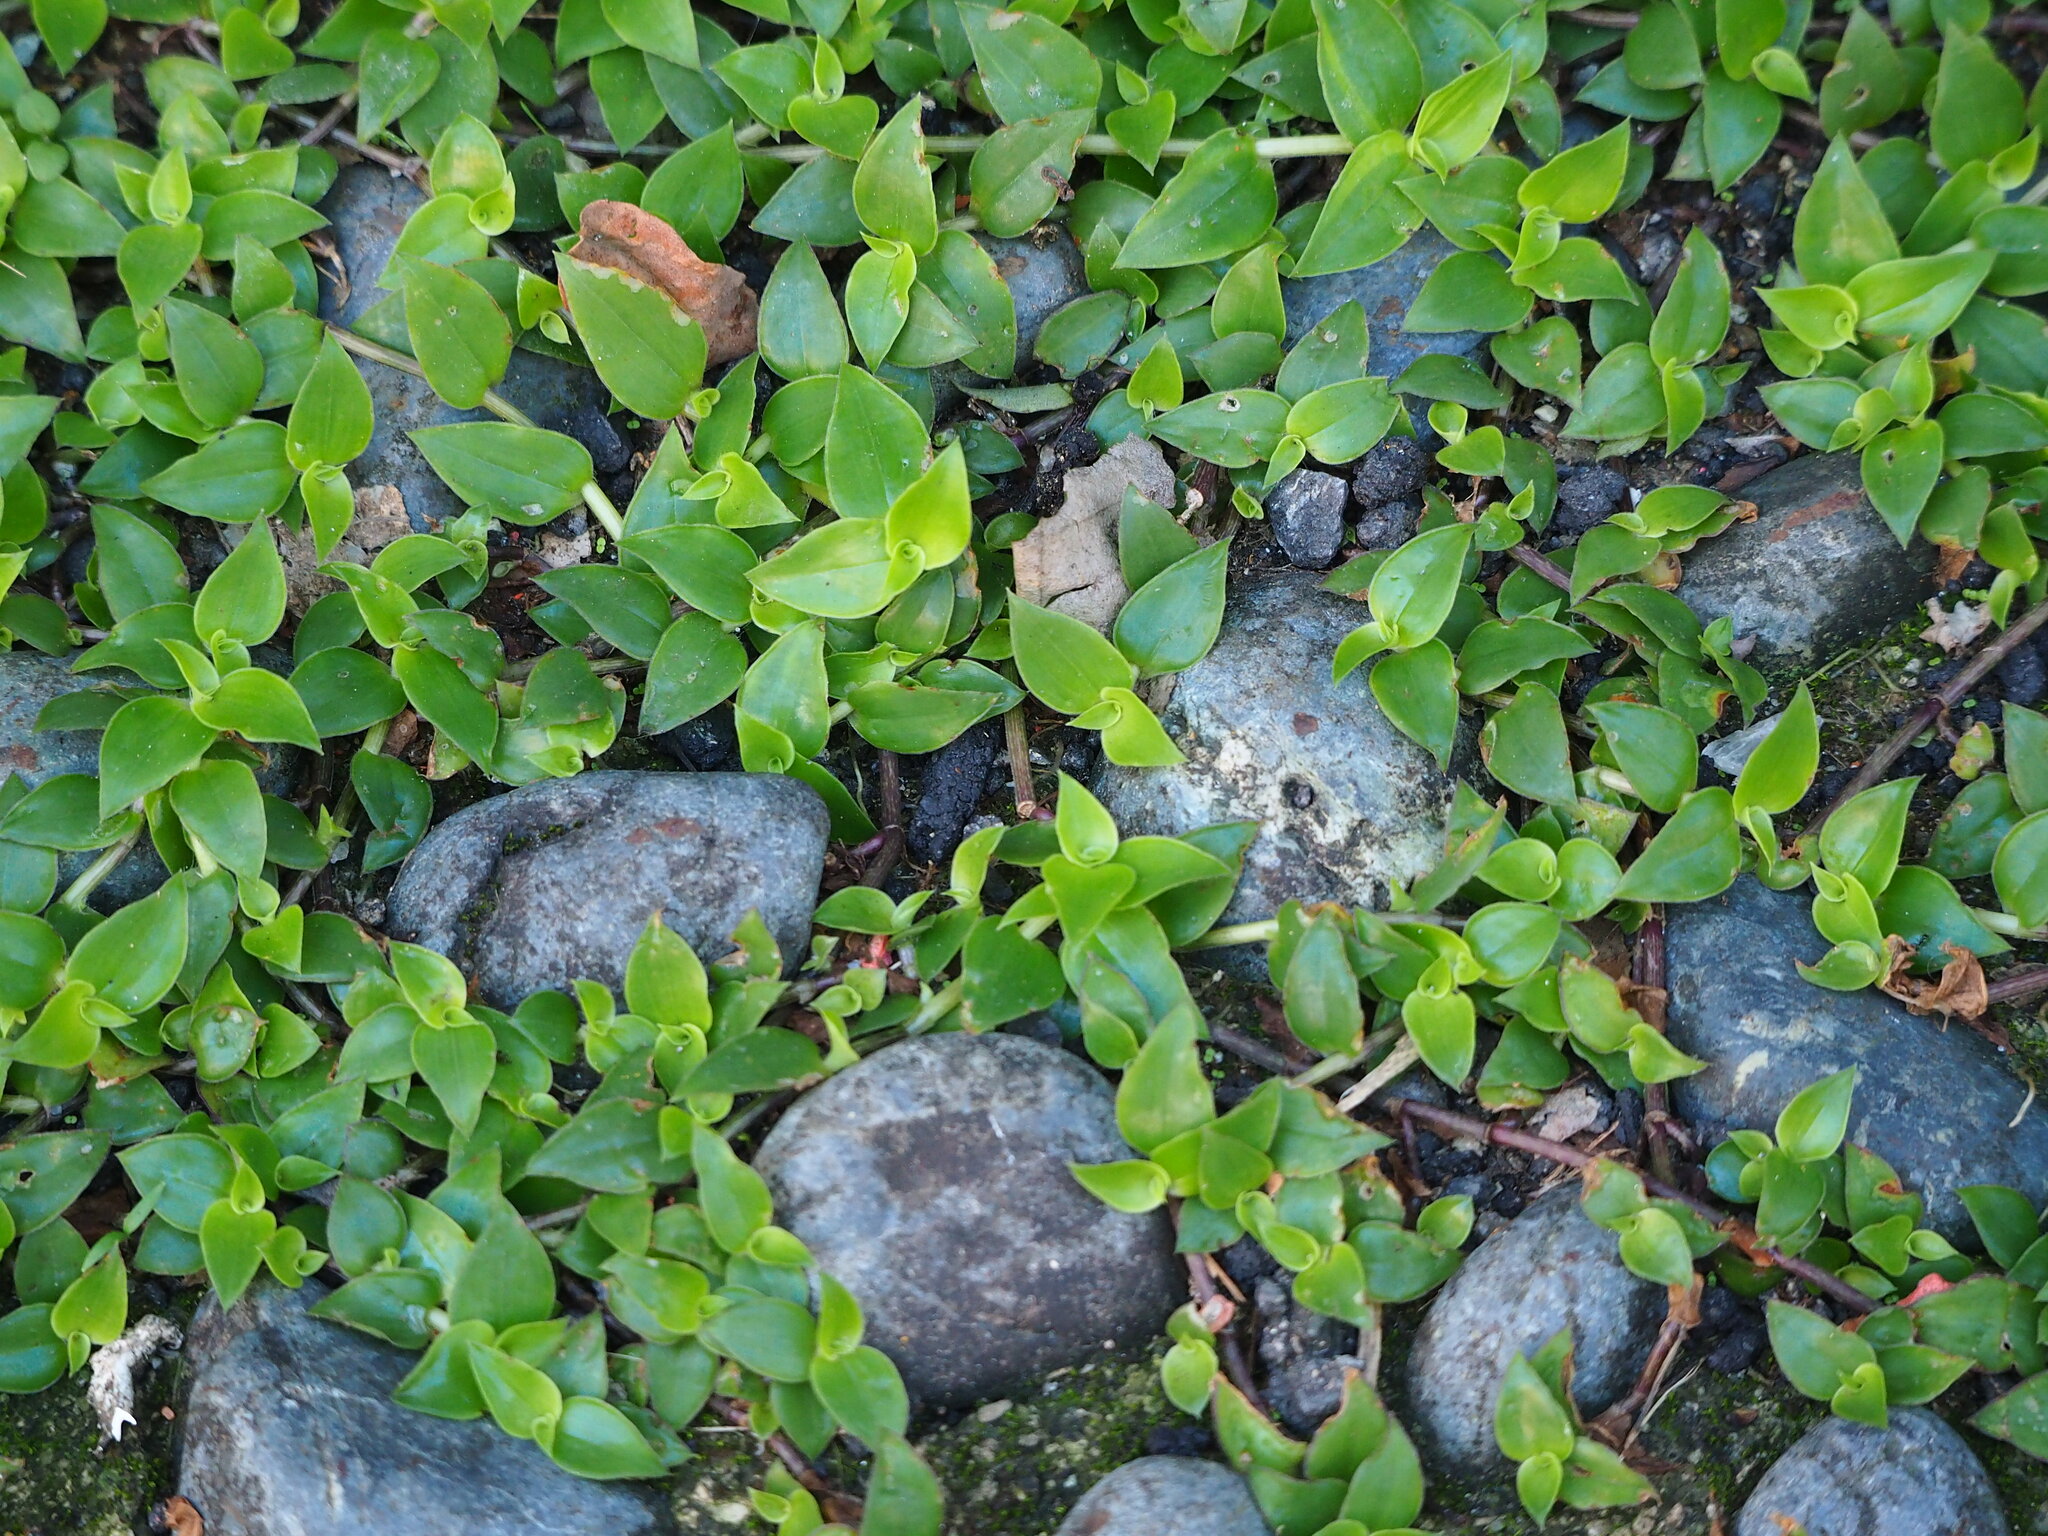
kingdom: Plantae
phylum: Tracheophyta
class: Liliopsida
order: Commelinales
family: Commelinaceae
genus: Callisia
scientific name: Callisia repens
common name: Creeping inchplant
